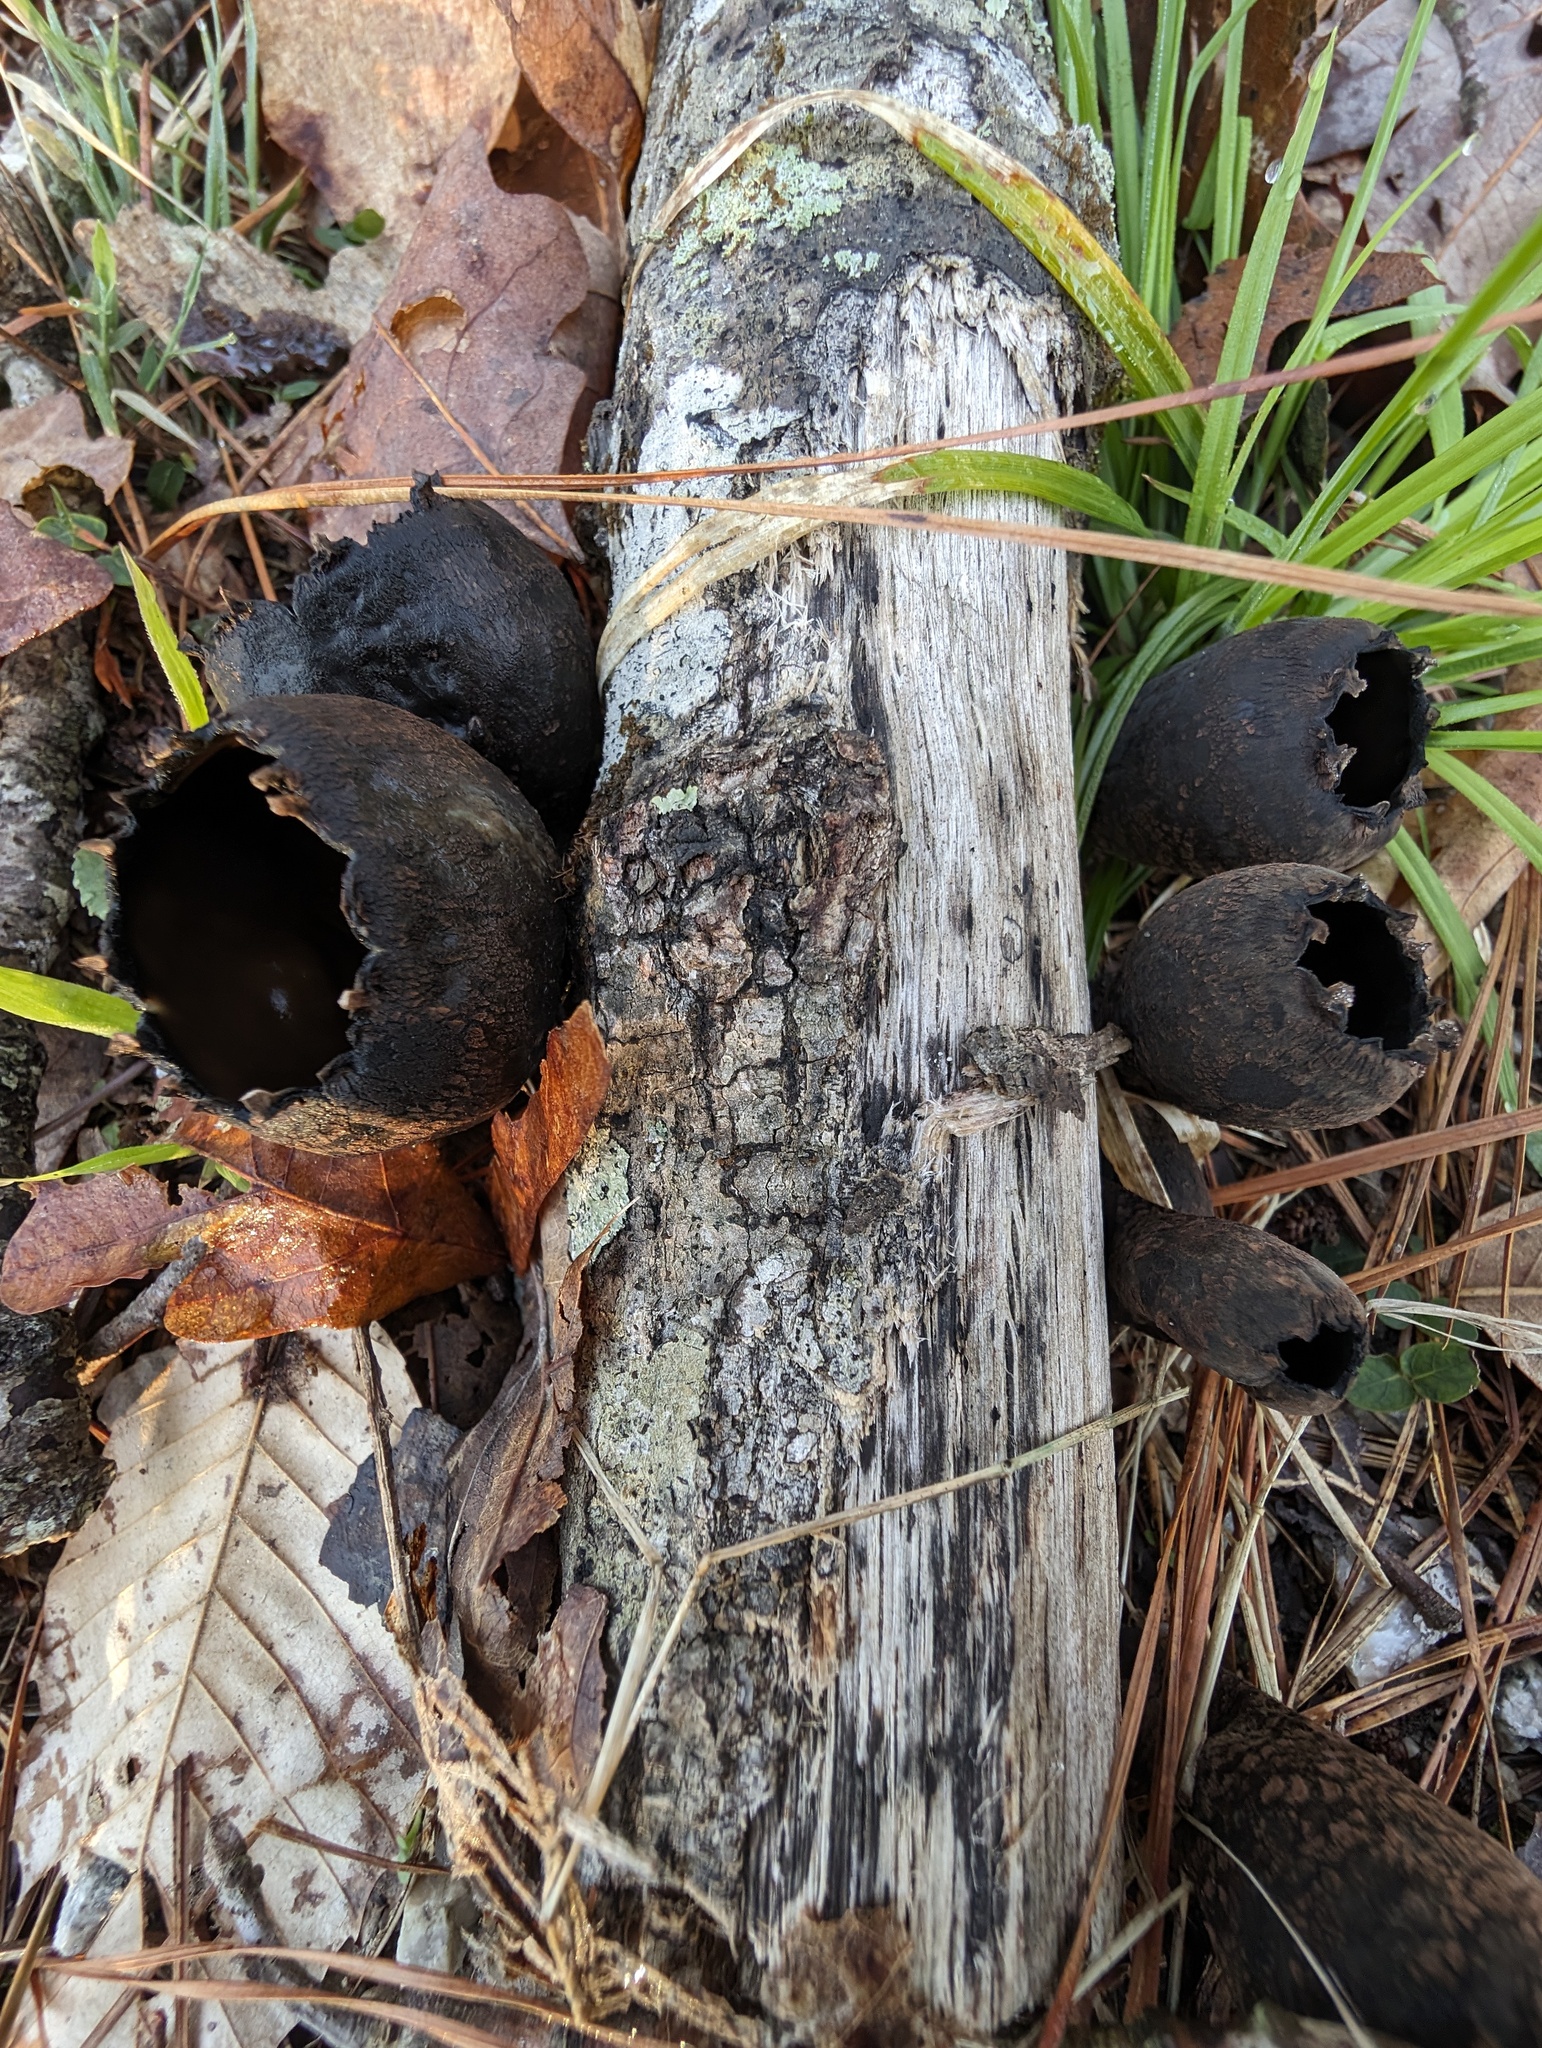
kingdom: Fungi
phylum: Ascomycota
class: Pezizomycetes
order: Pezizales
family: Sarcosomataceae
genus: Urnula
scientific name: Urnula craterium
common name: Devil's urn
